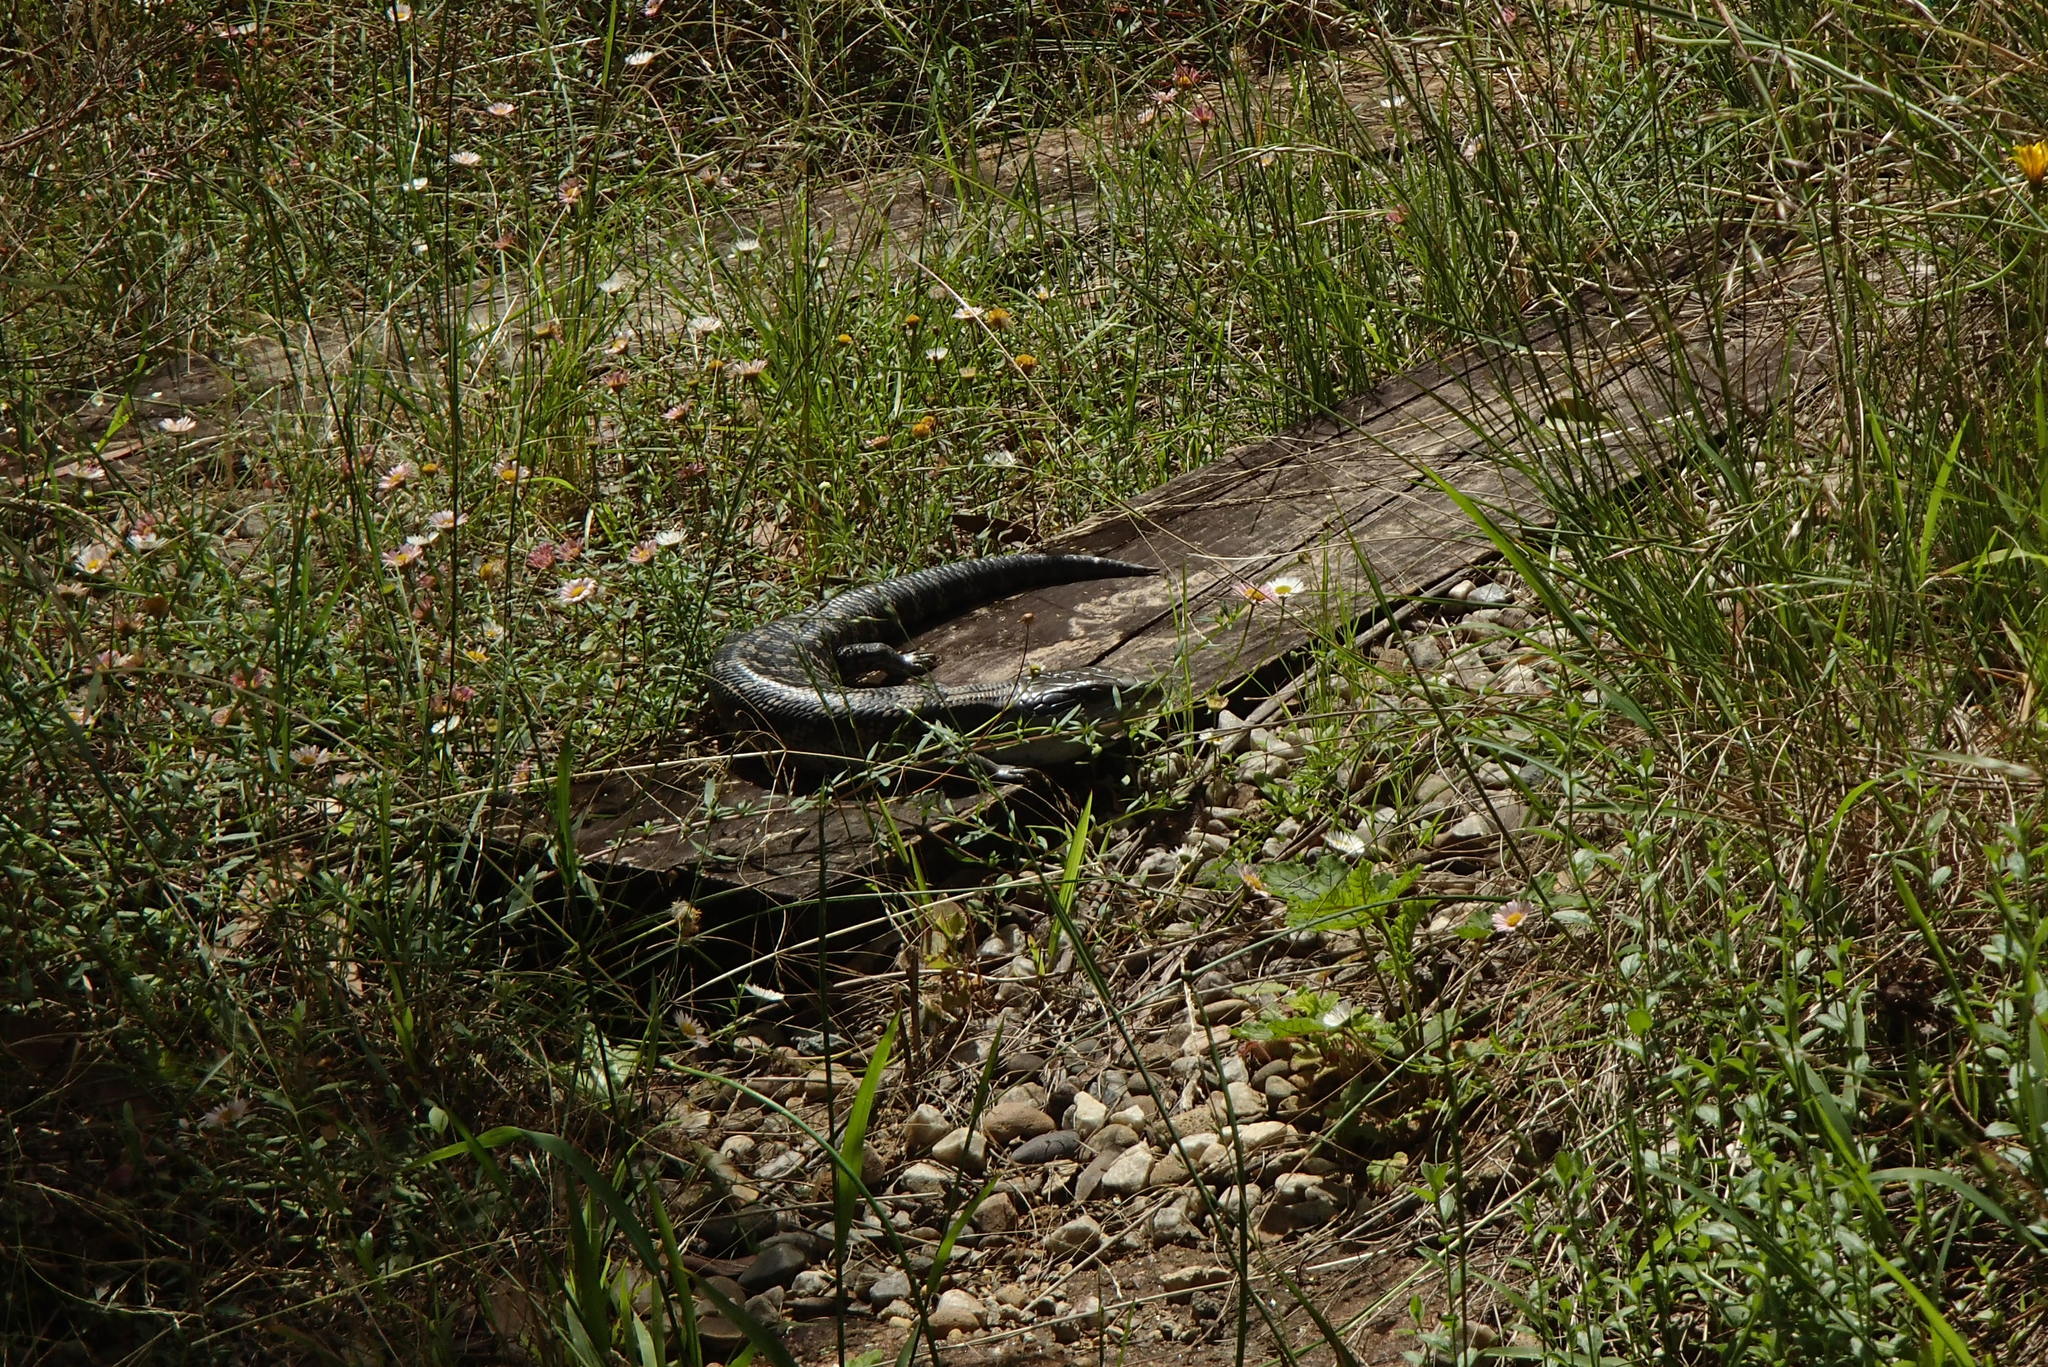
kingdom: Animalia
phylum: Chordata
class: Squamata
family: Scincidae
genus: Tiliqua
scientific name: Tiliqua scincoides
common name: Common bluetongue
